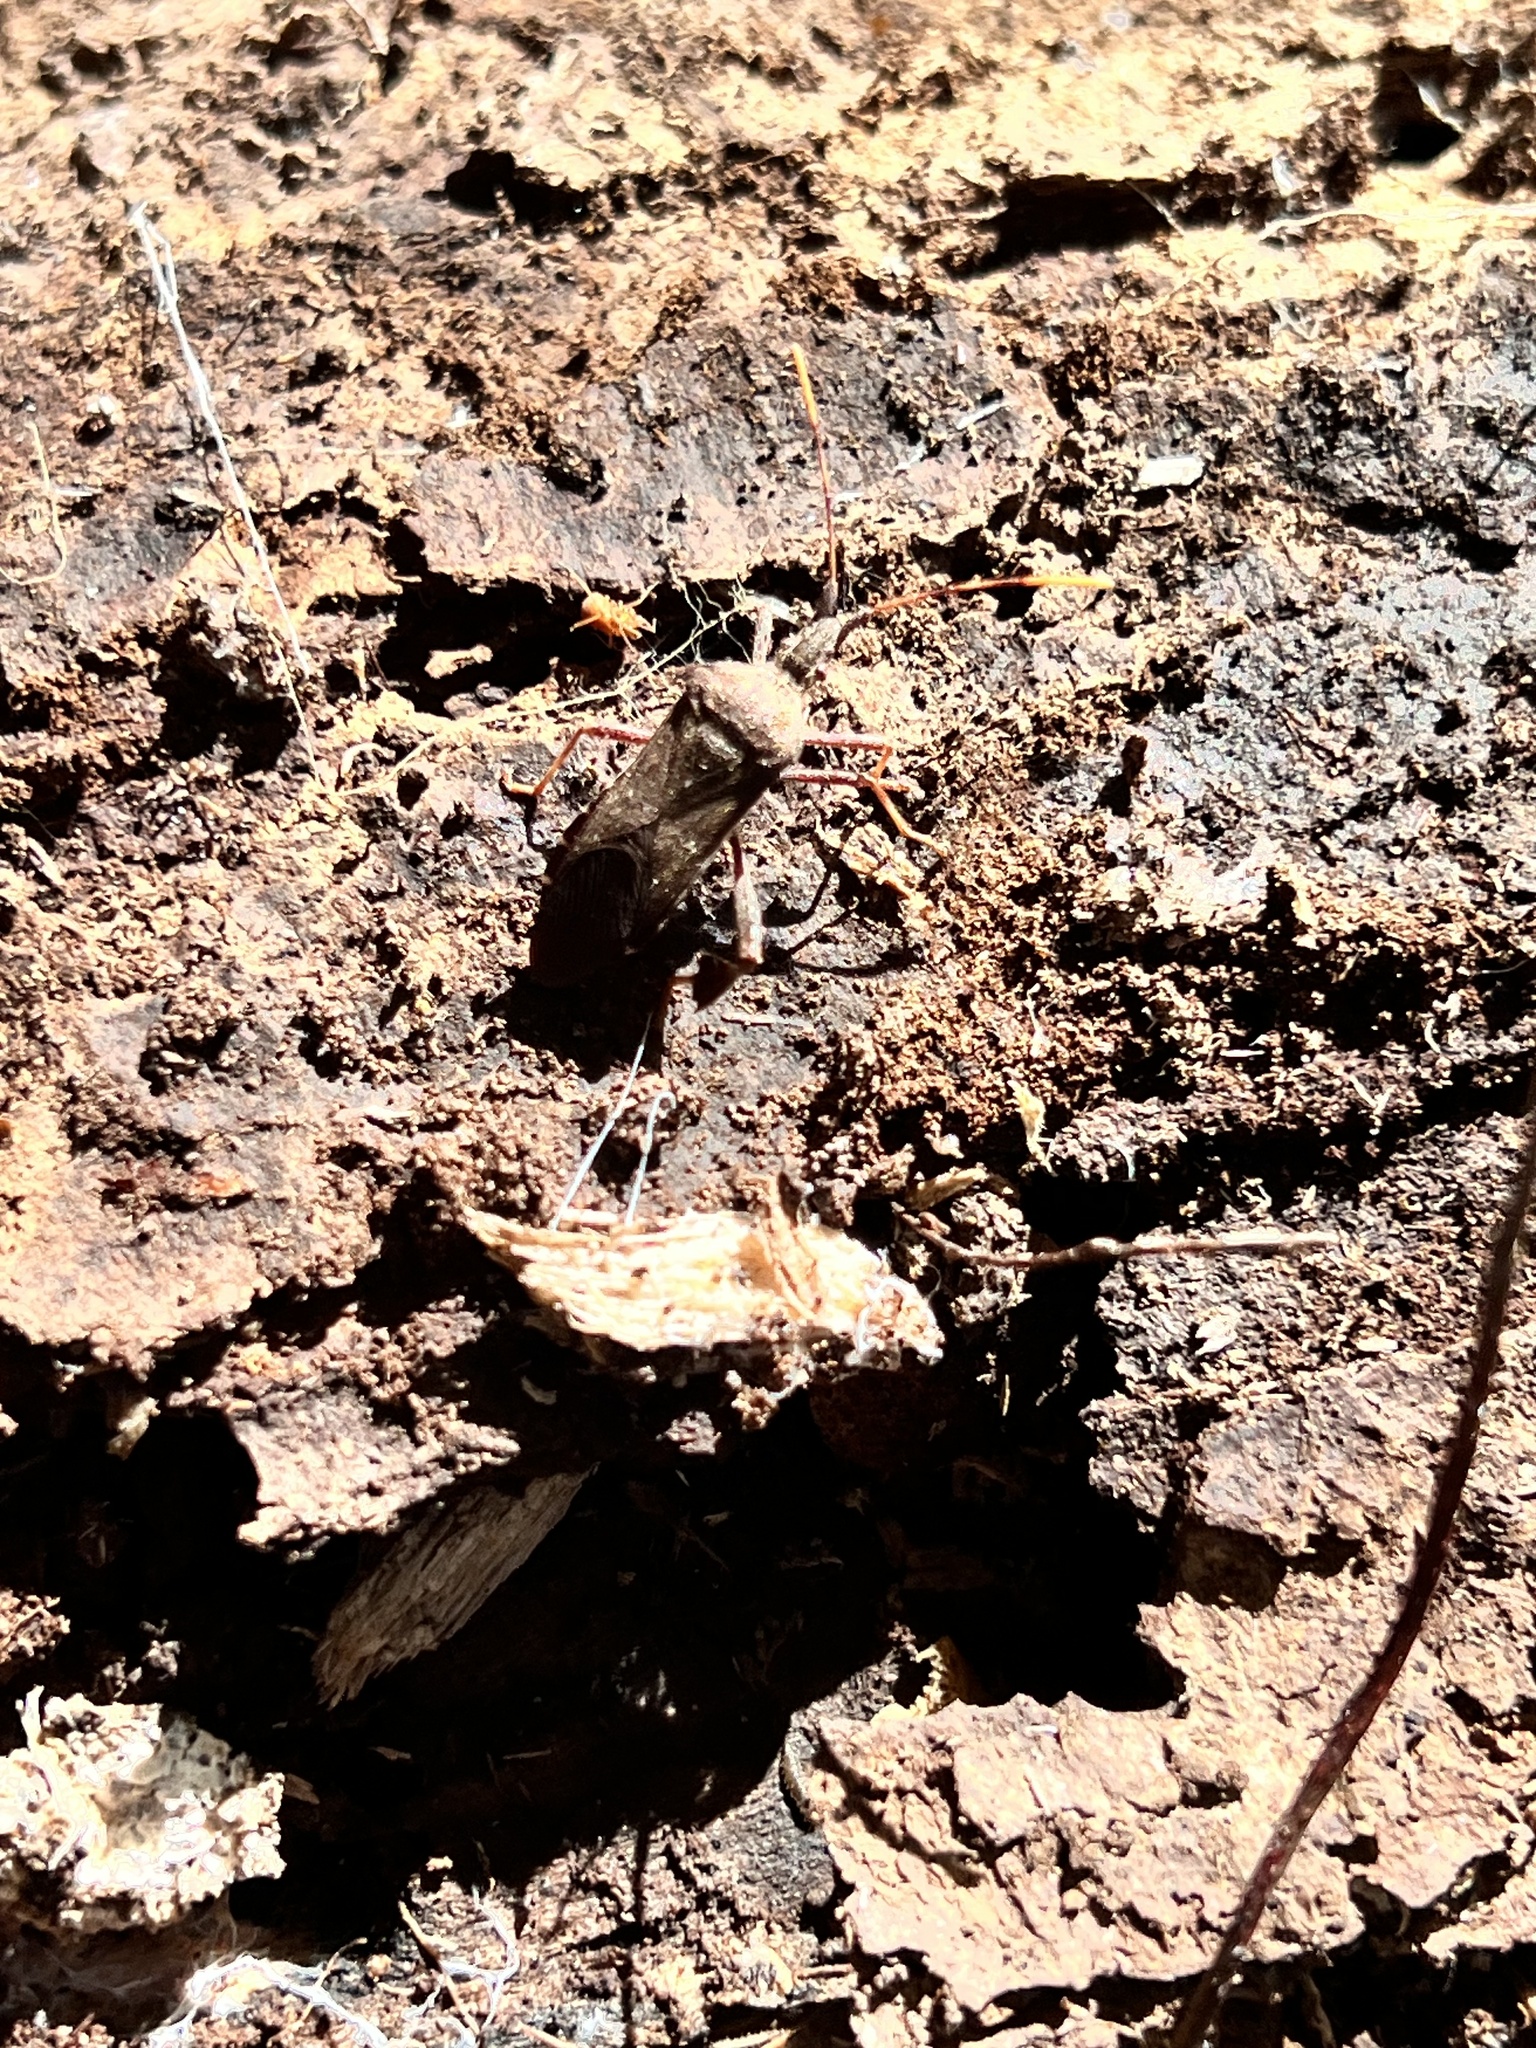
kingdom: Animalia
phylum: Arthropoda
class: Insecta
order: Hemiptera
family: Coreidae
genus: Leptoglossus
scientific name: Leptoglossus oppositus
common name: Northern leaf-footed bug
